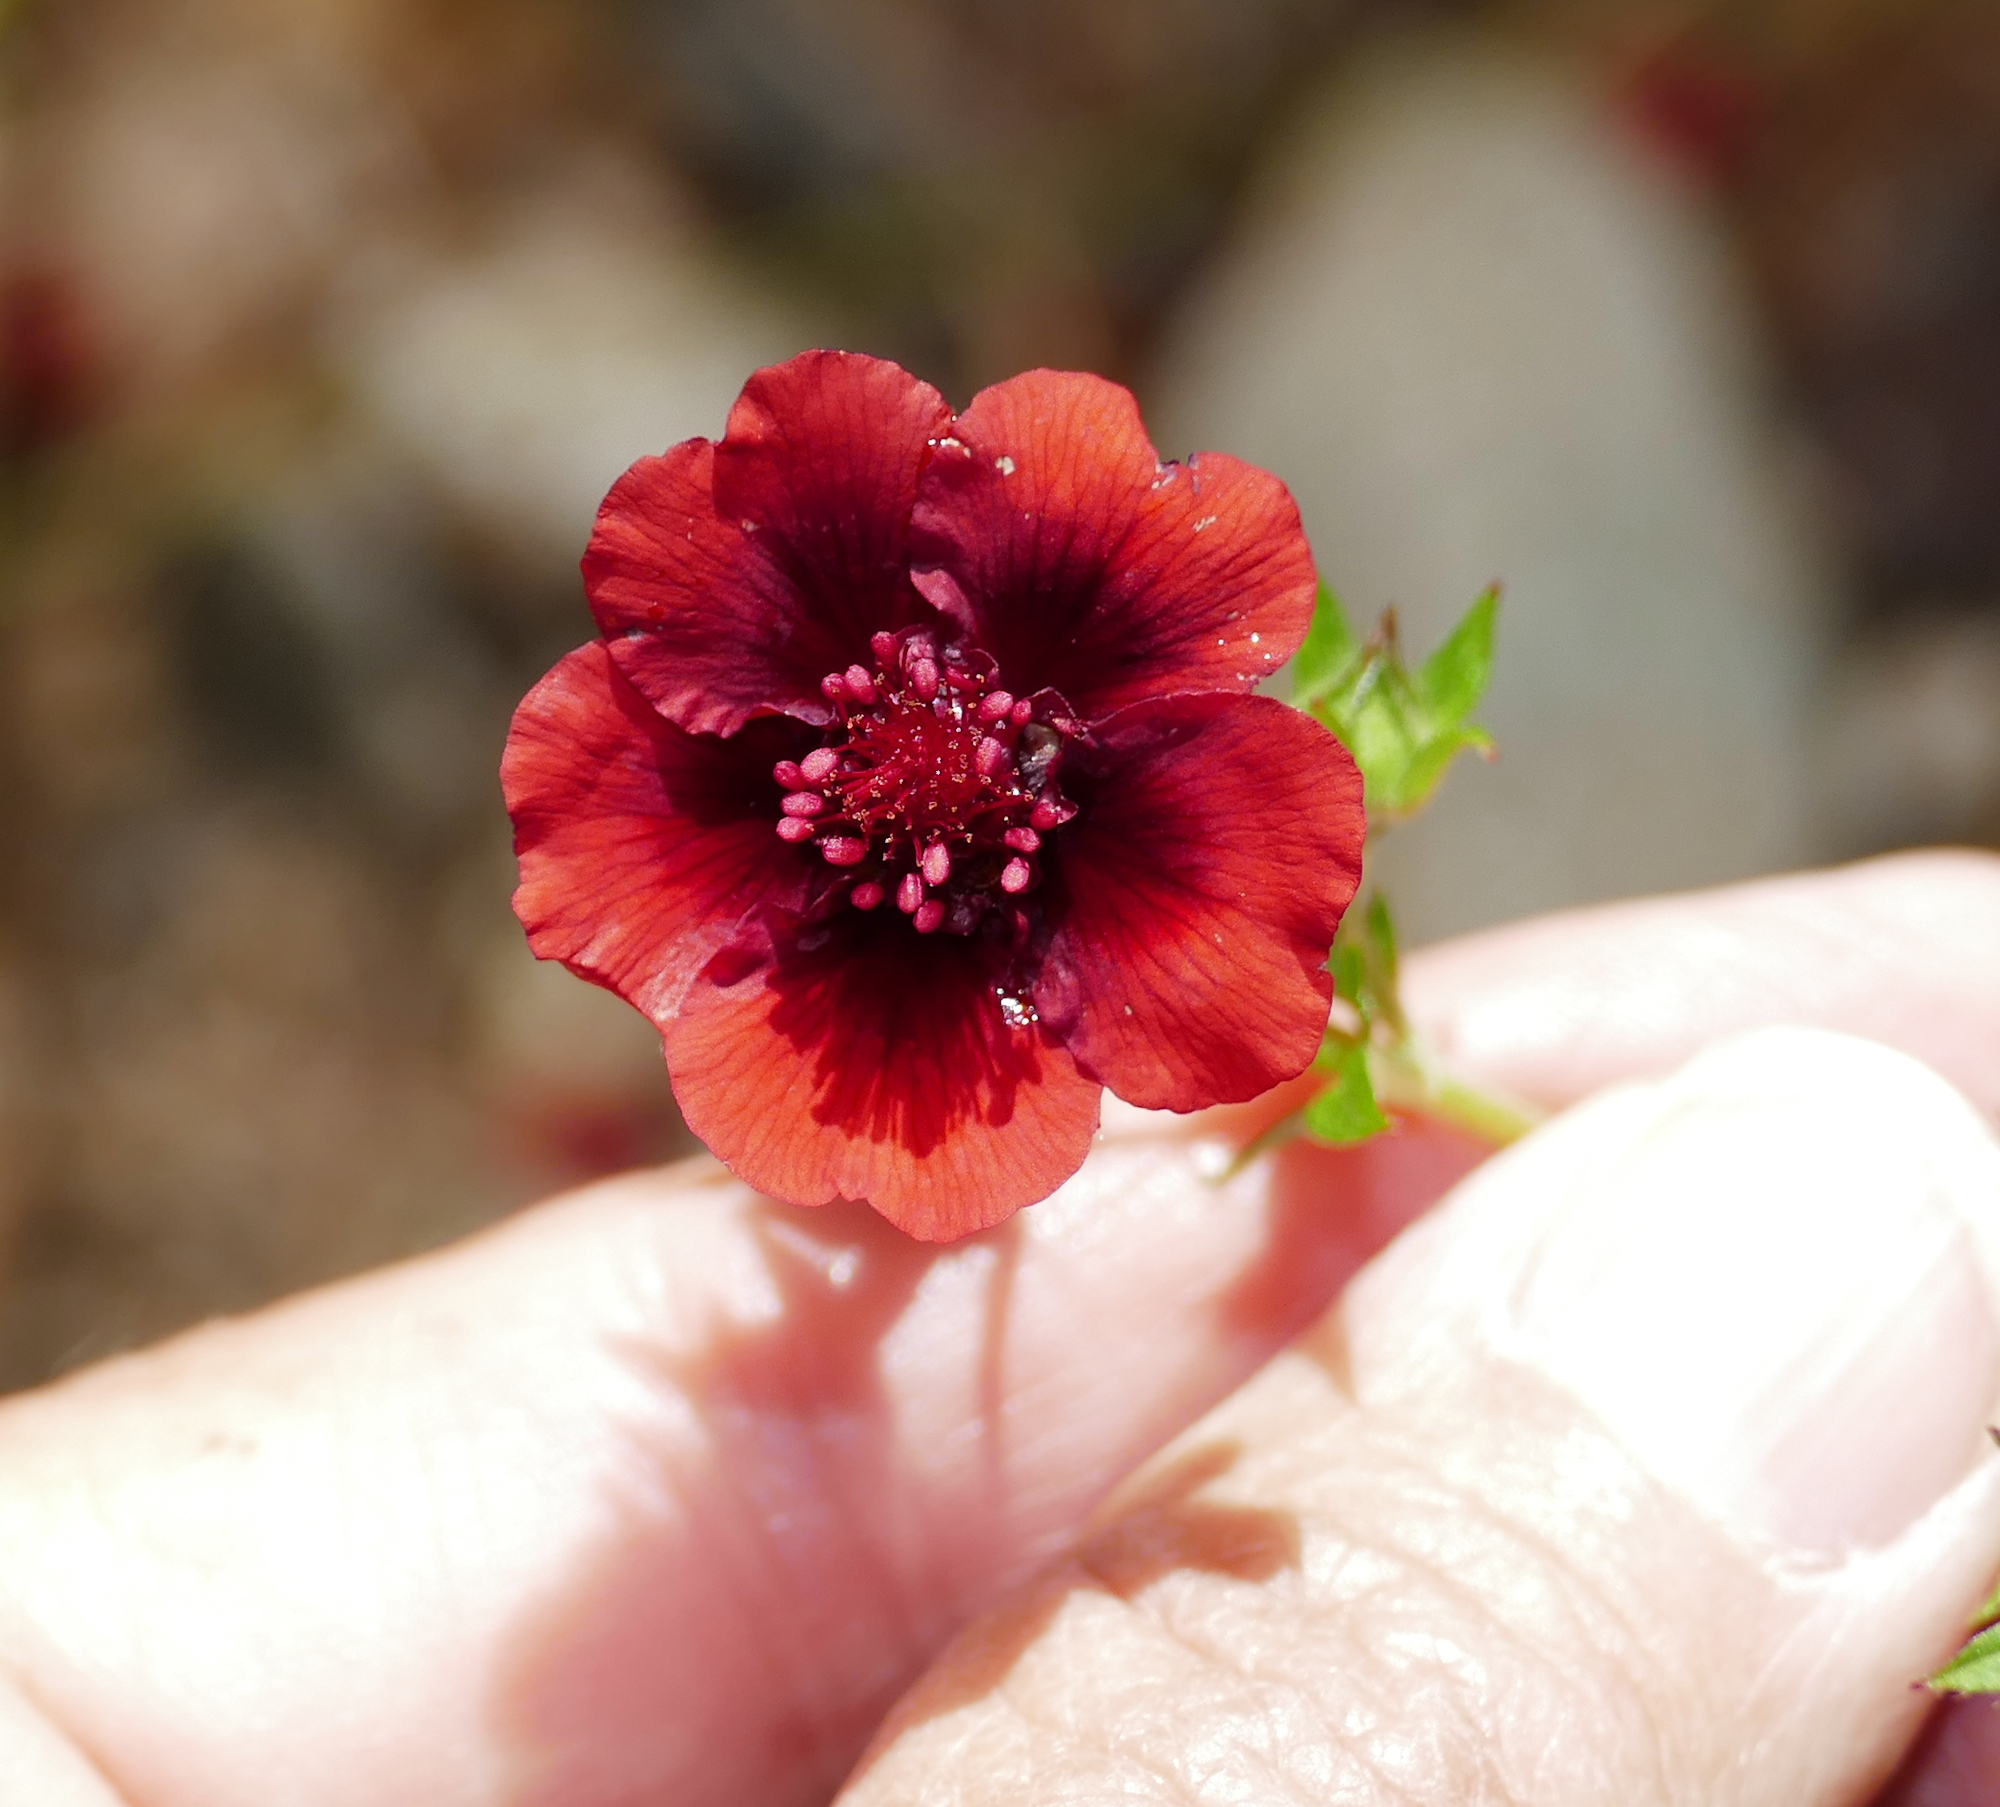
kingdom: Plantae
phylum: Tracheophyta
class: Magnoliopsida
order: Rosales
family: Rosaceae
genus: Potentilla
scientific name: Potentilla thurberi
